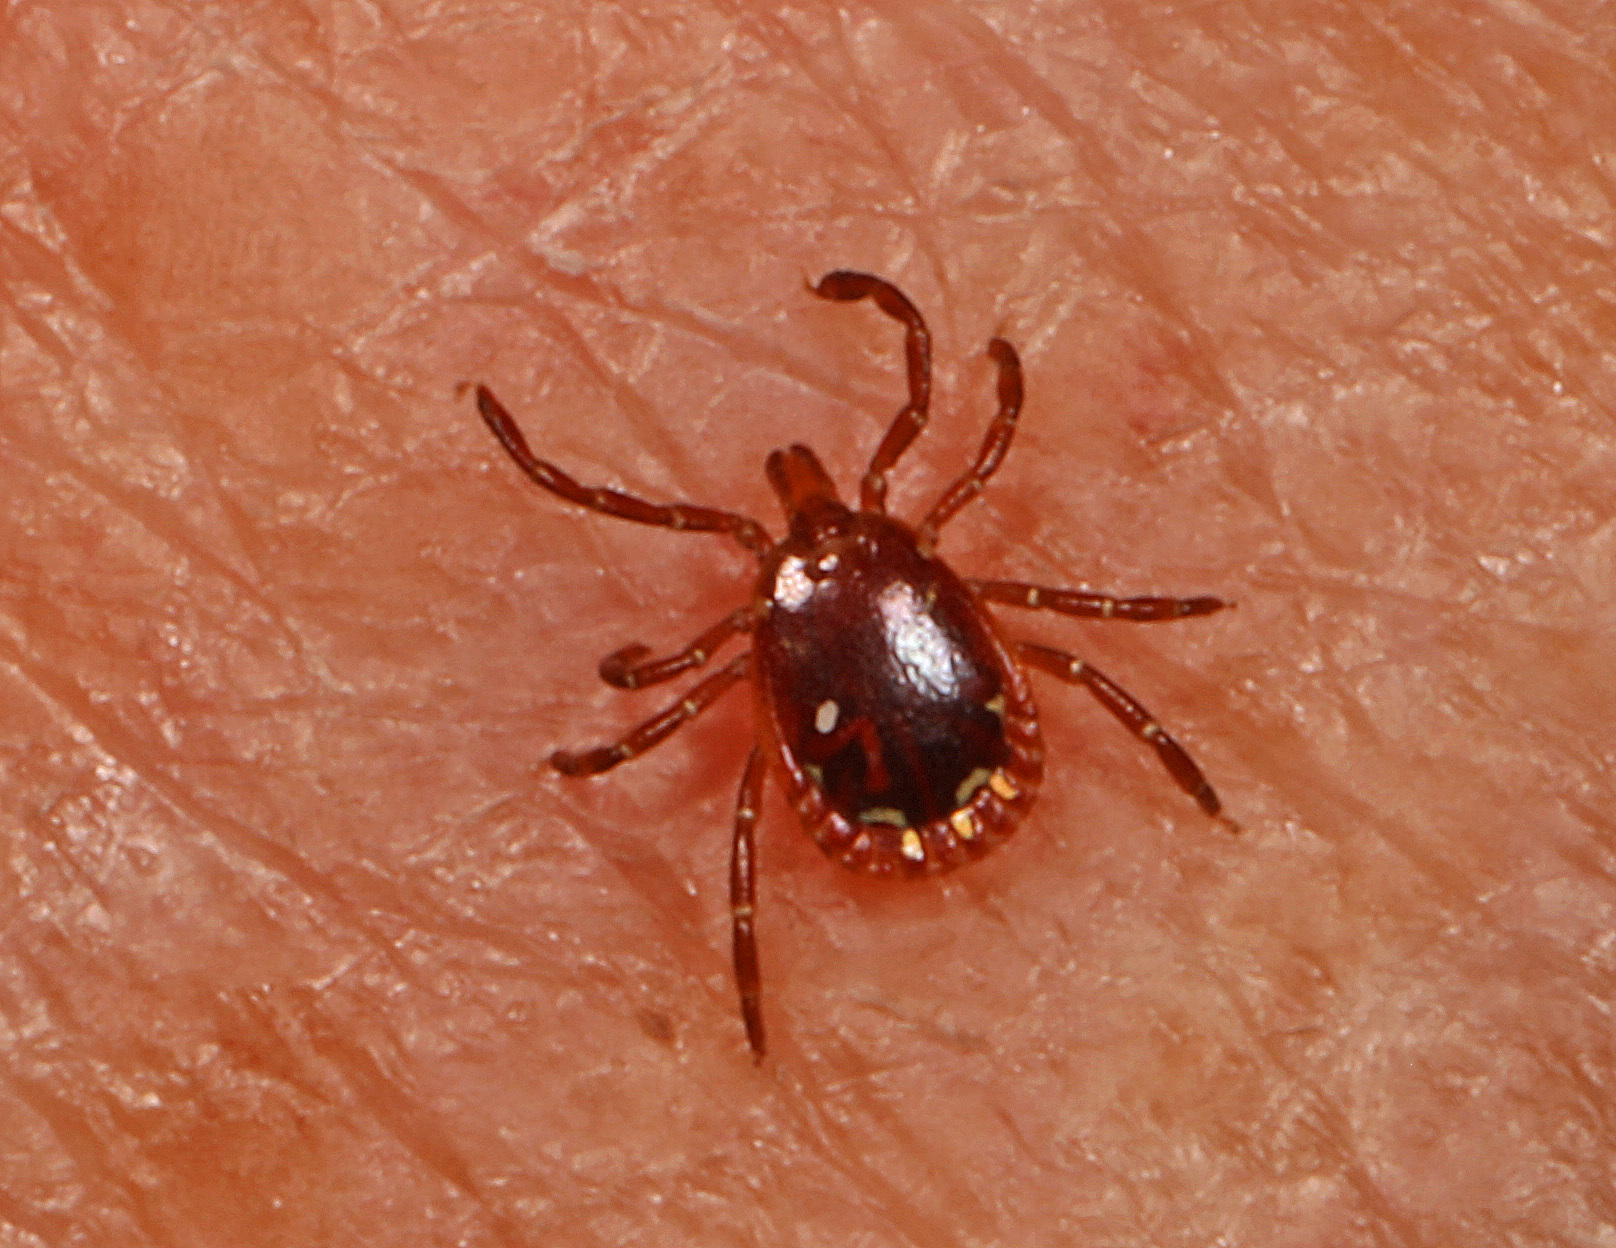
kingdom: Animalia
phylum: Arthropoda
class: Arachnida
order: Ixodida
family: Ixodidae
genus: Amblyomma
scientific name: Amblyomma americanum
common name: Lone star tick
